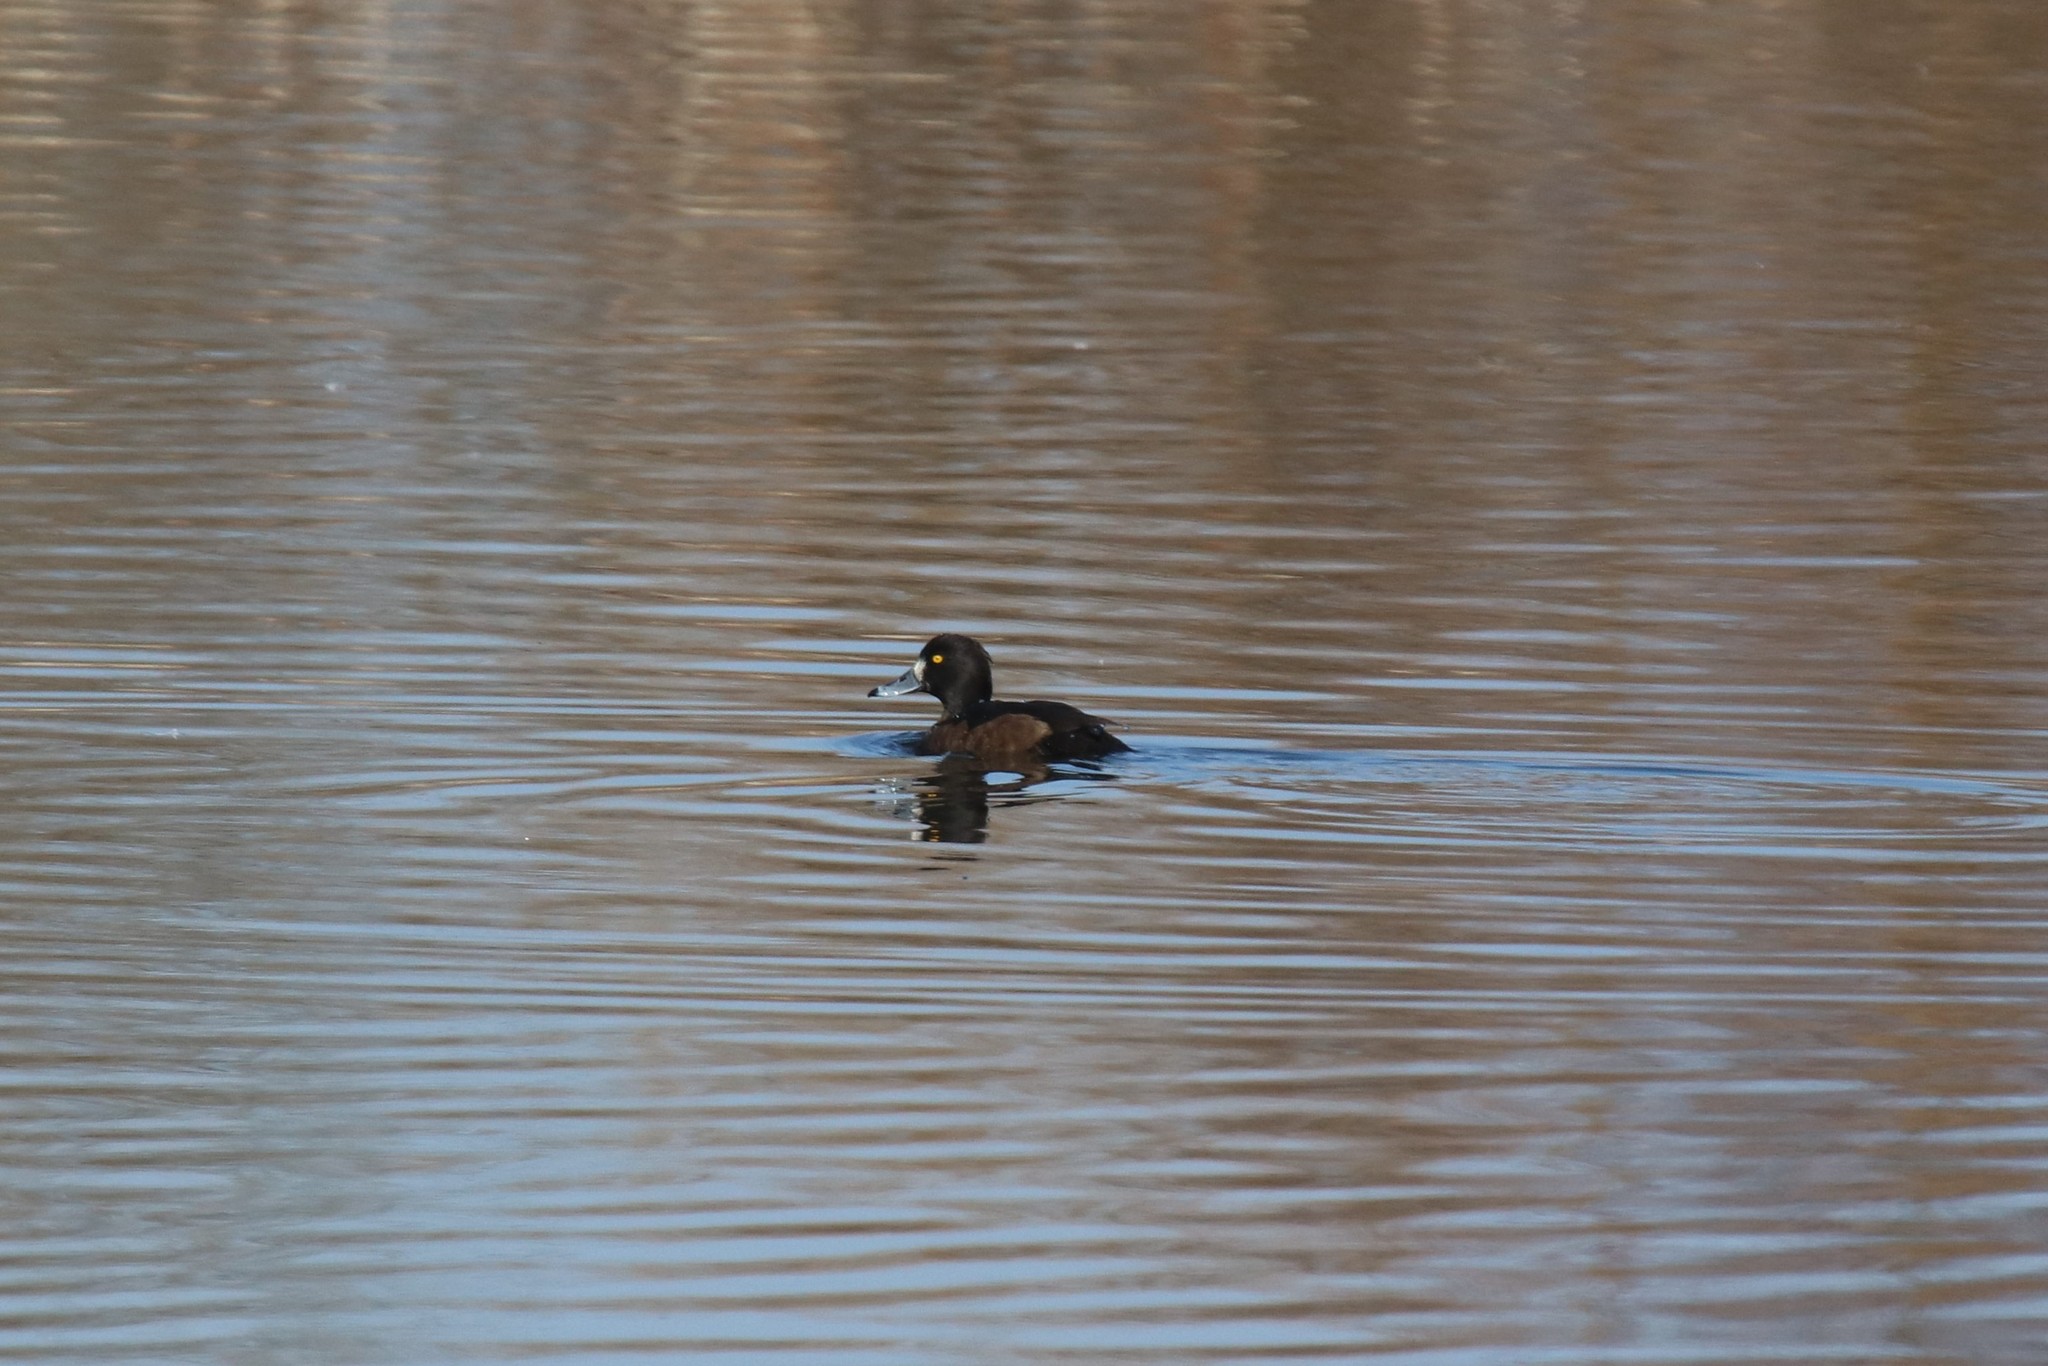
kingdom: Animalia
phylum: Chordata
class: Aves
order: Anseriformes
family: Anatidae
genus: Aythya
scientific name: Aythya fuligula
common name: Tufted duck
